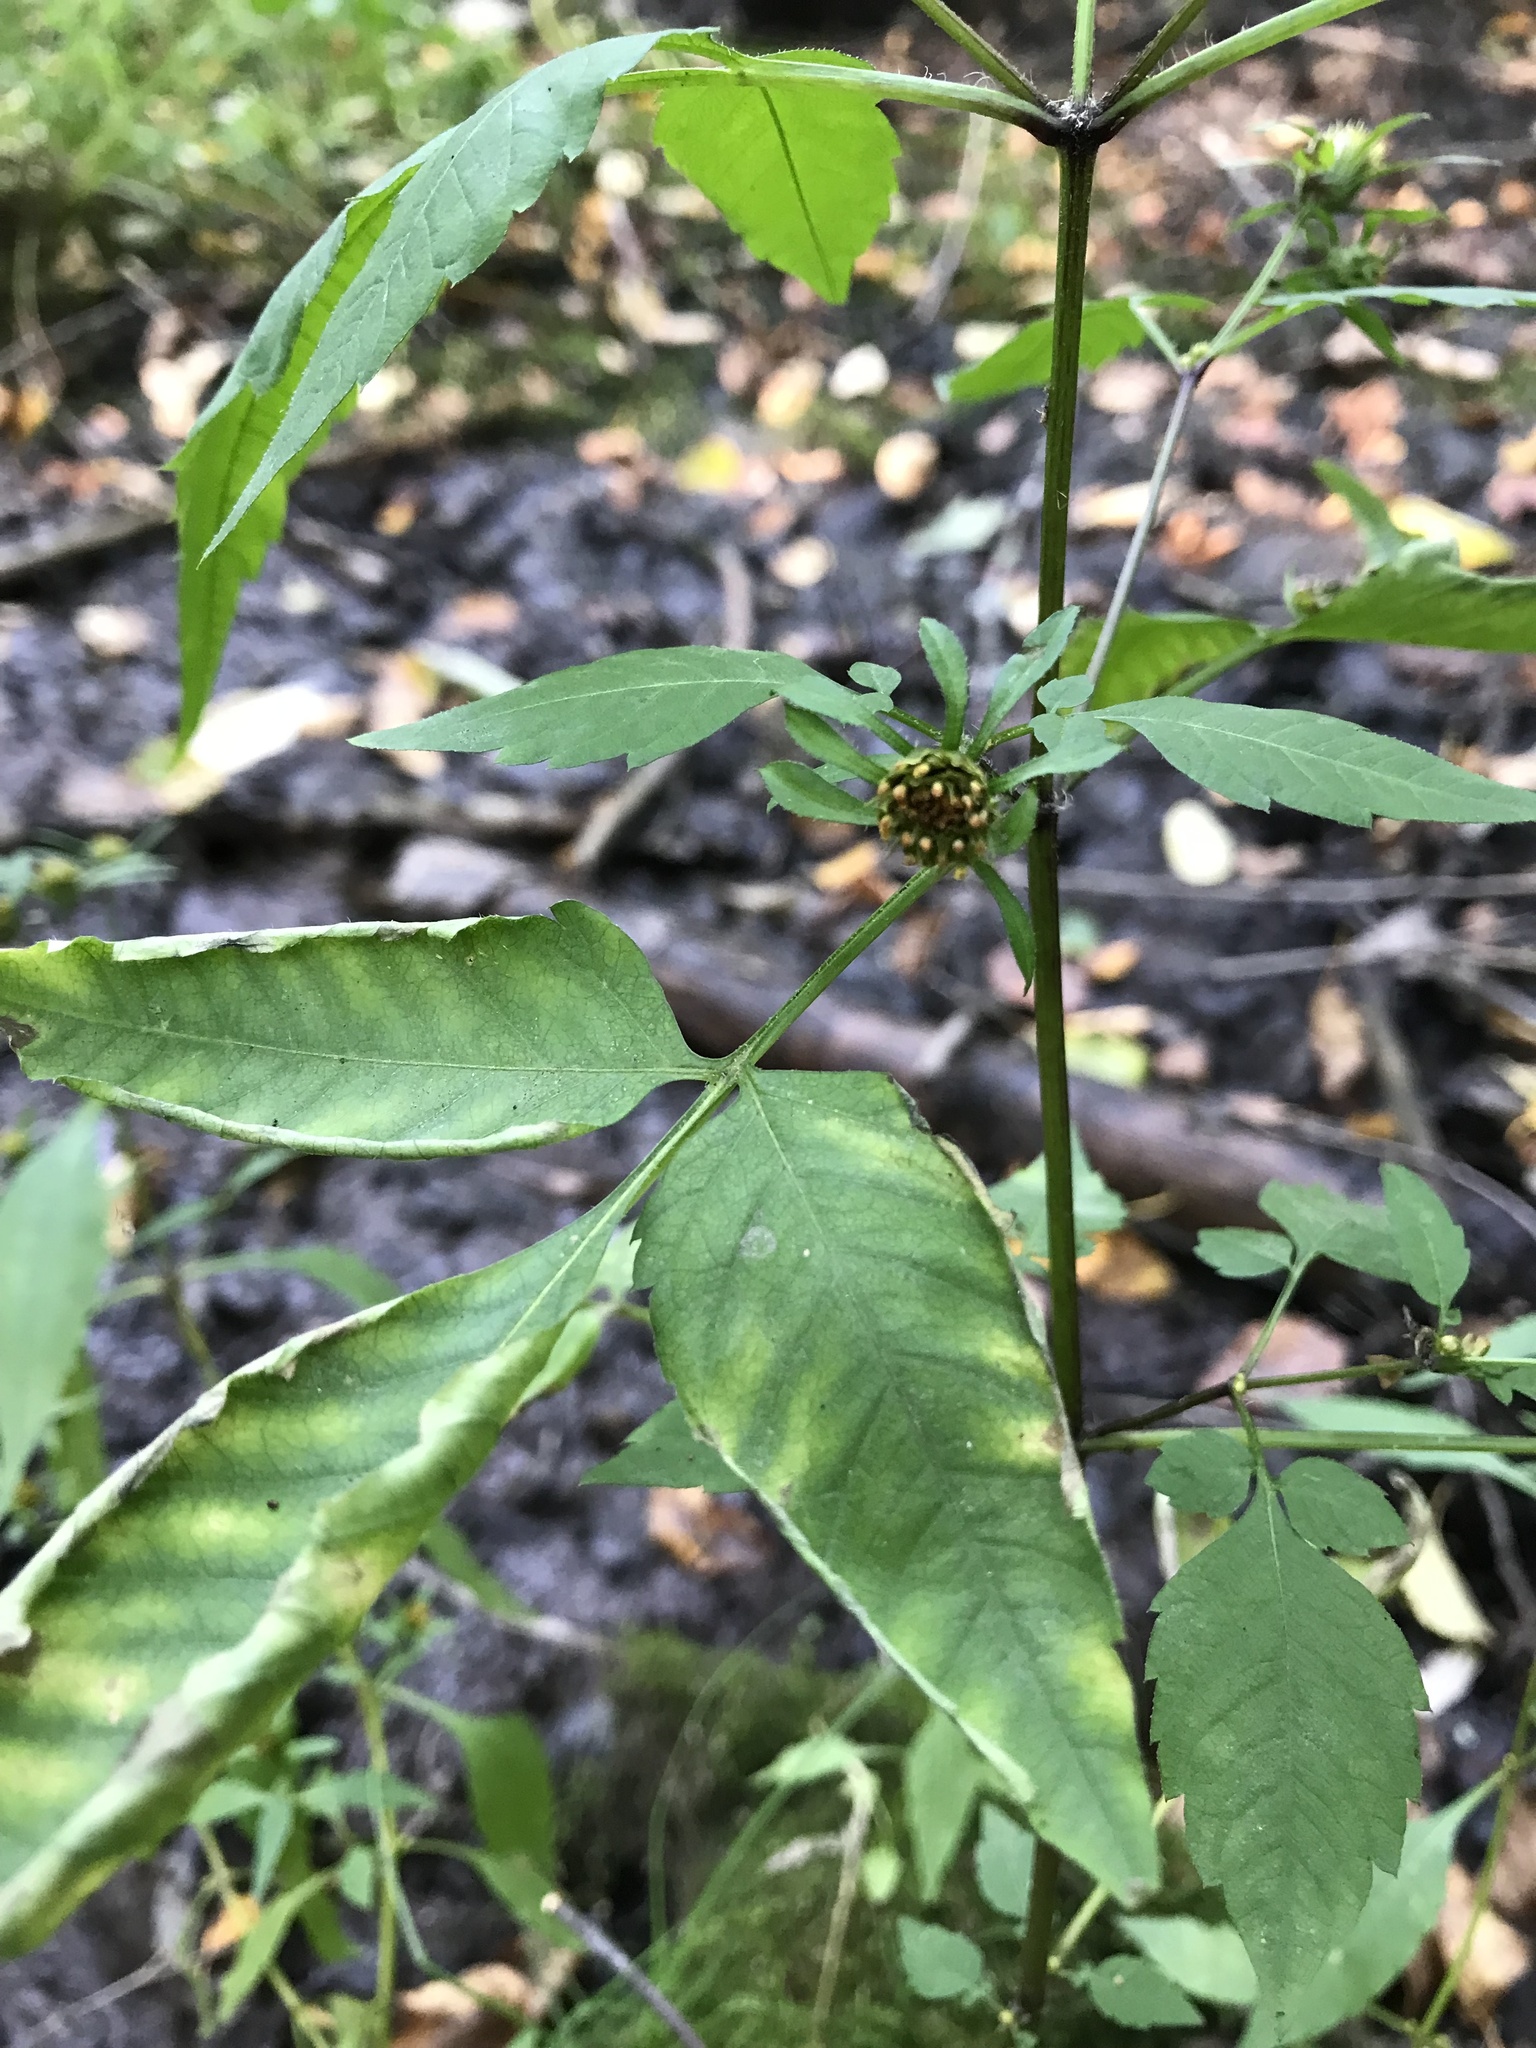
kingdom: Plantae
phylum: Tracheophyta
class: Magnoliopsida
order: Asterales
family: Asteraceae
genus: Bidens
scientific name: Bidens frondosa
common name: Beggarticks
